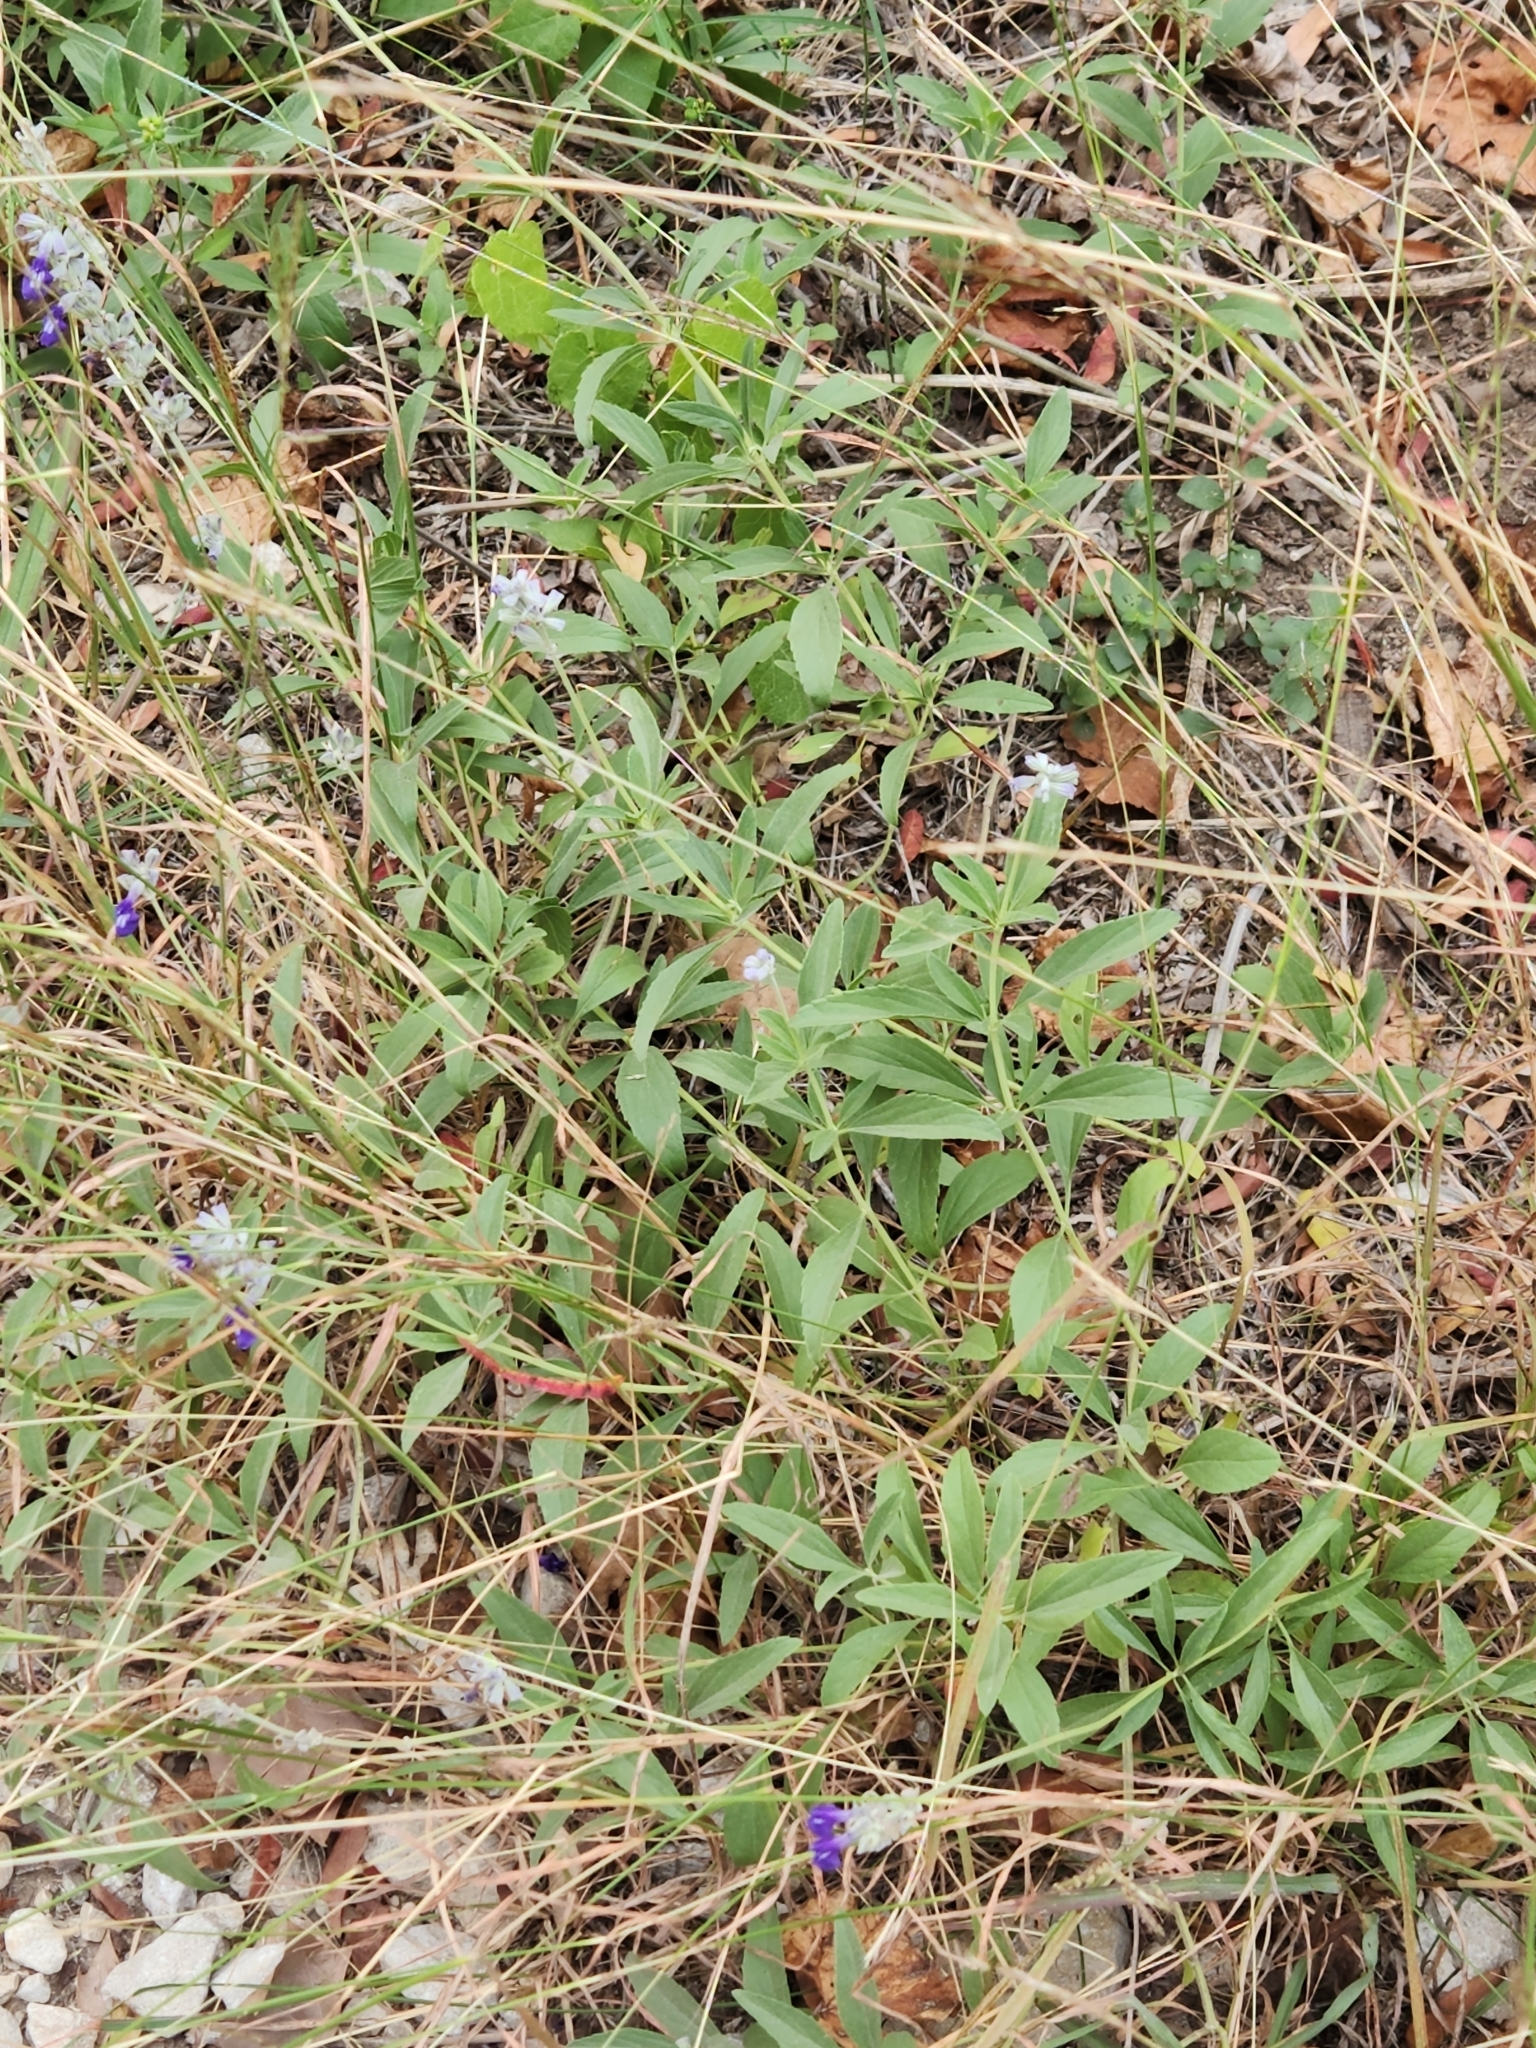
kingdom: Plantae
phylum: Tracheophyta
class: Magnoliopsida
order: Lamiales
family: Lamiaceae
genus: Salvia
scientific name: Salvia farinacea
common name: Mealy sage
